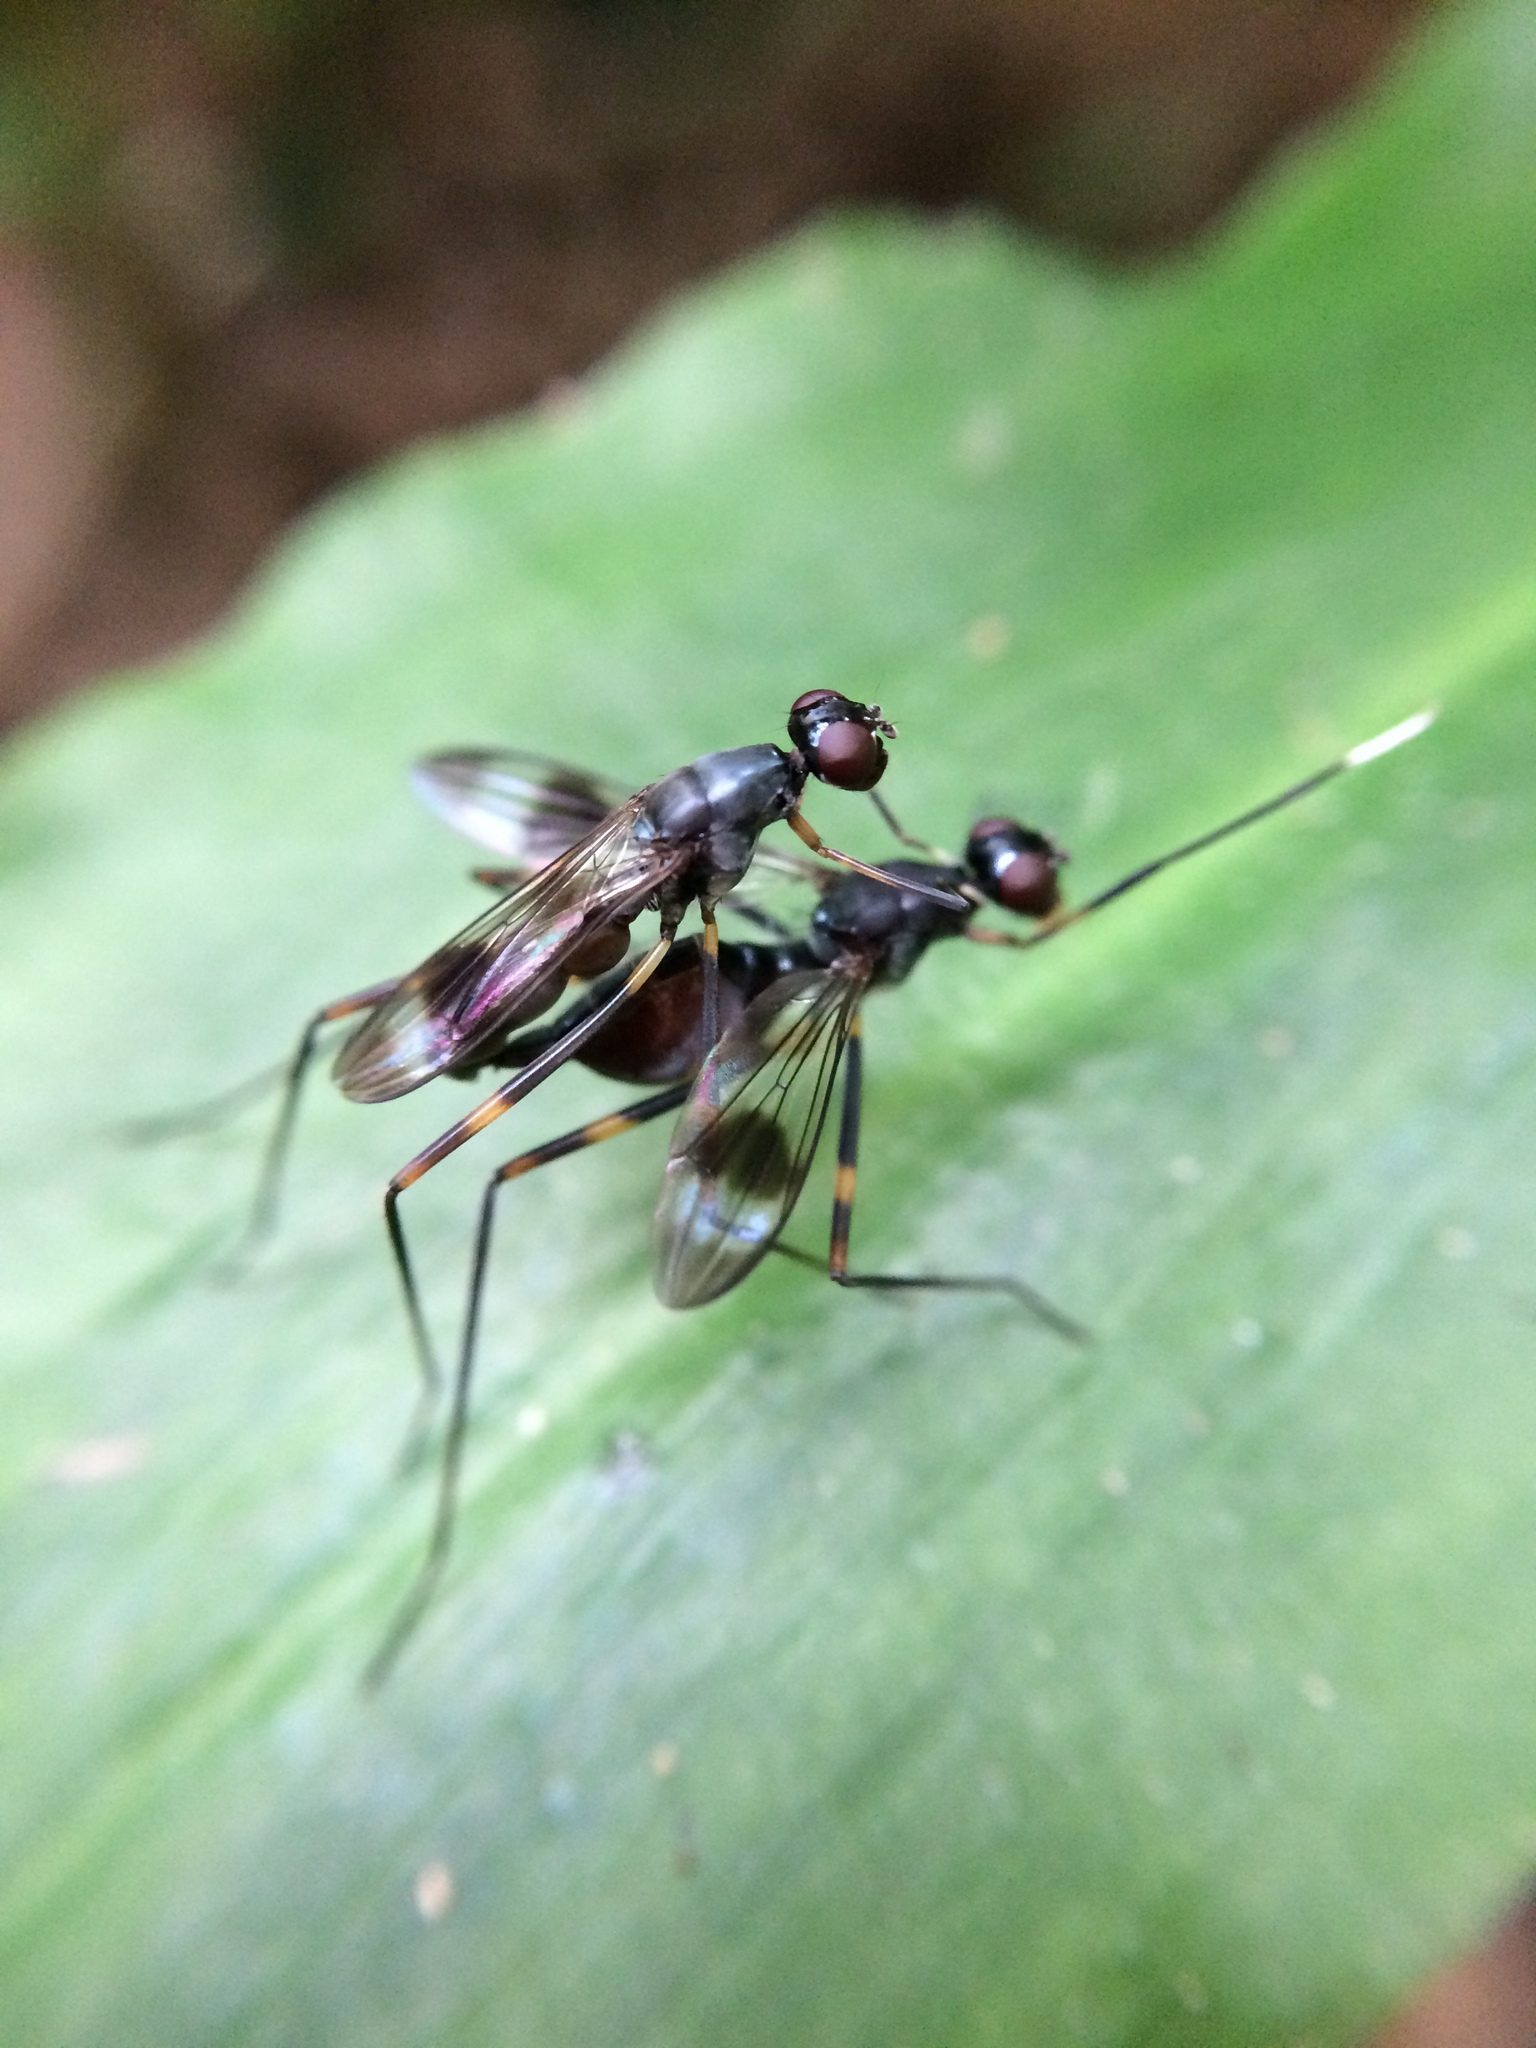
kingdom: Animalia
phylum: Arthropoda
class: Insecta
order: Diptera
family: Micropezidae
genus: Hybobata
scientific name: Hybobata
